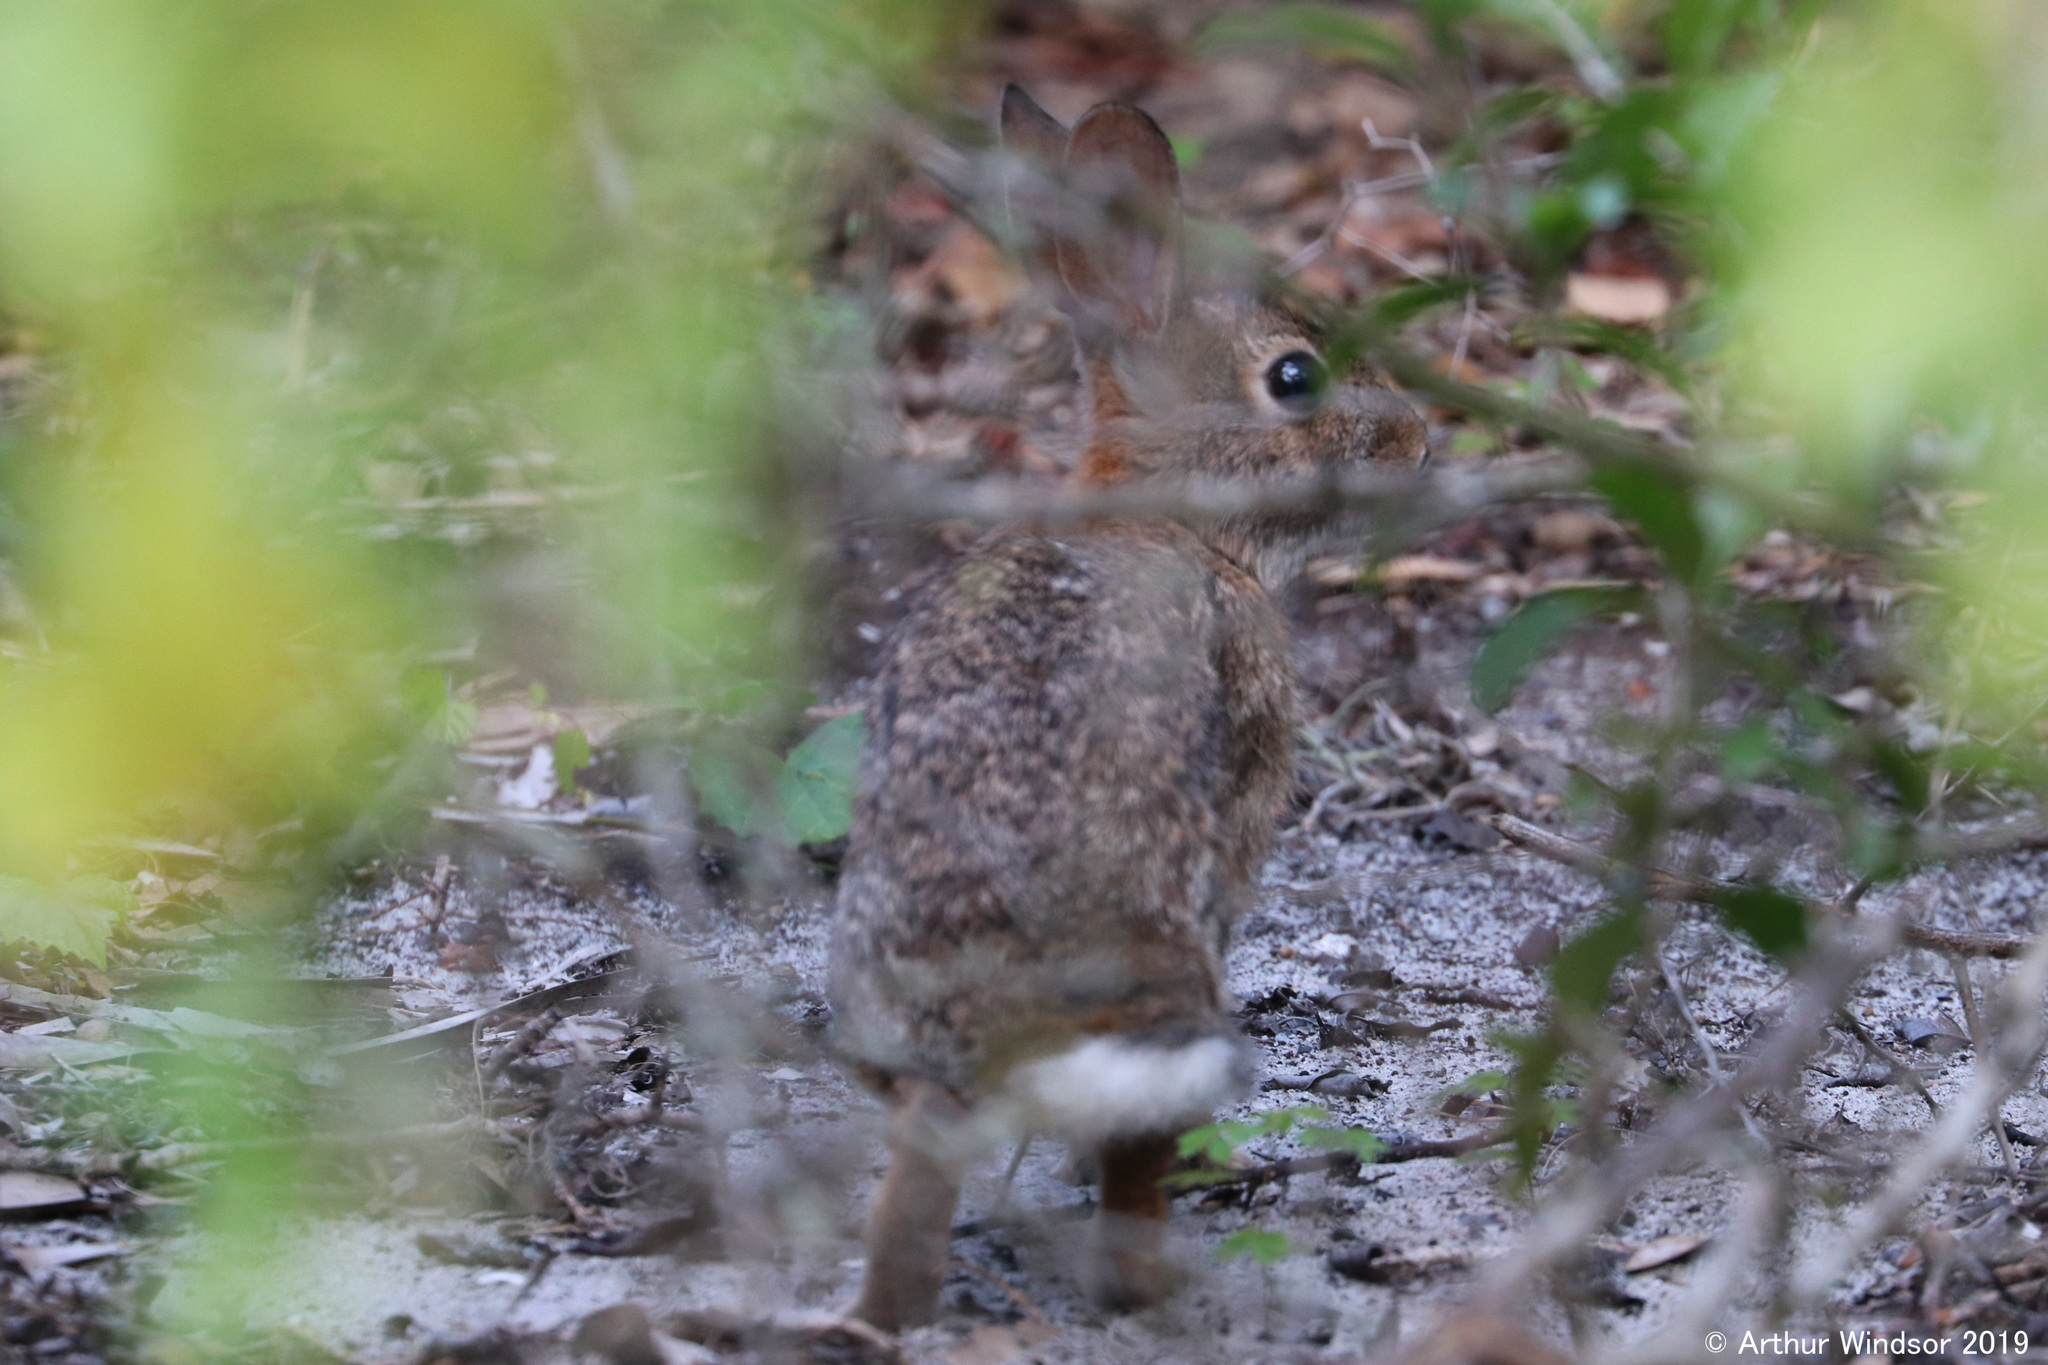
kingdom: Animalia
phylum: Chordata
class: Mammalia
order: Lagomorpha
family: Leporidae
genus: Sylvilagus
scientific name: Sylvilagus floridanus
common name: Eastern cottontail
